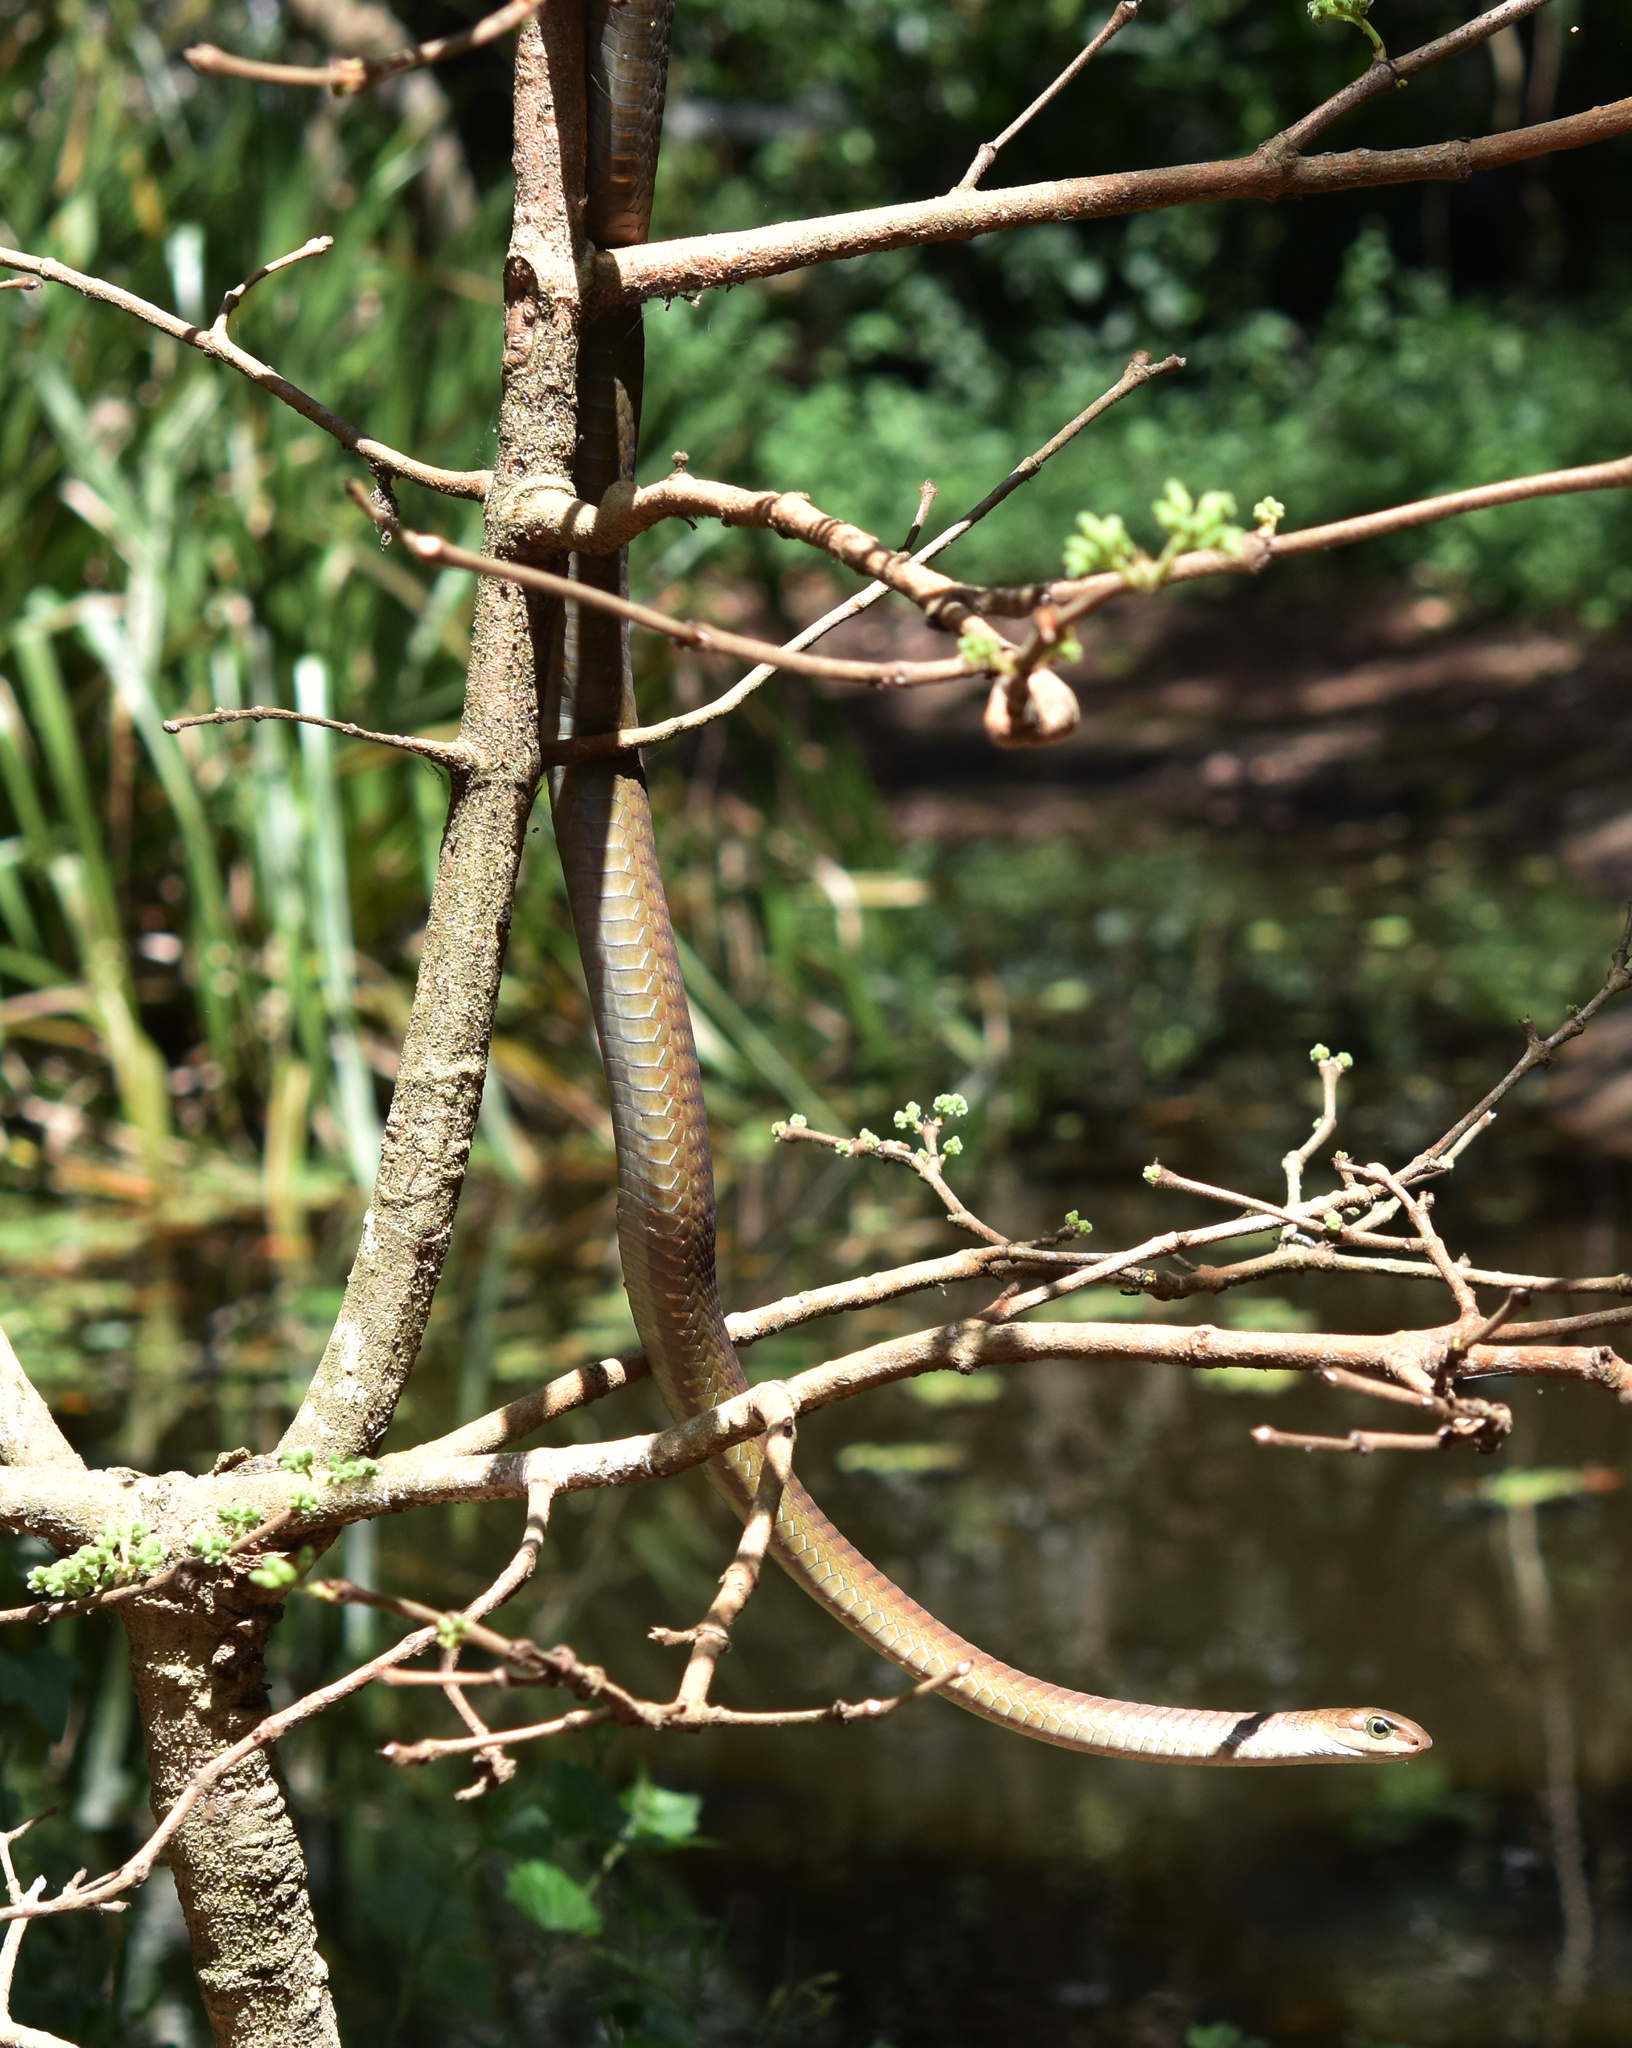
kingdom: Animalia
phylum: Chordata
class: Squamata
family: Colubridae
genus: Dispholidus
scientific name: Dispholidus typus
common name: Boomslang
